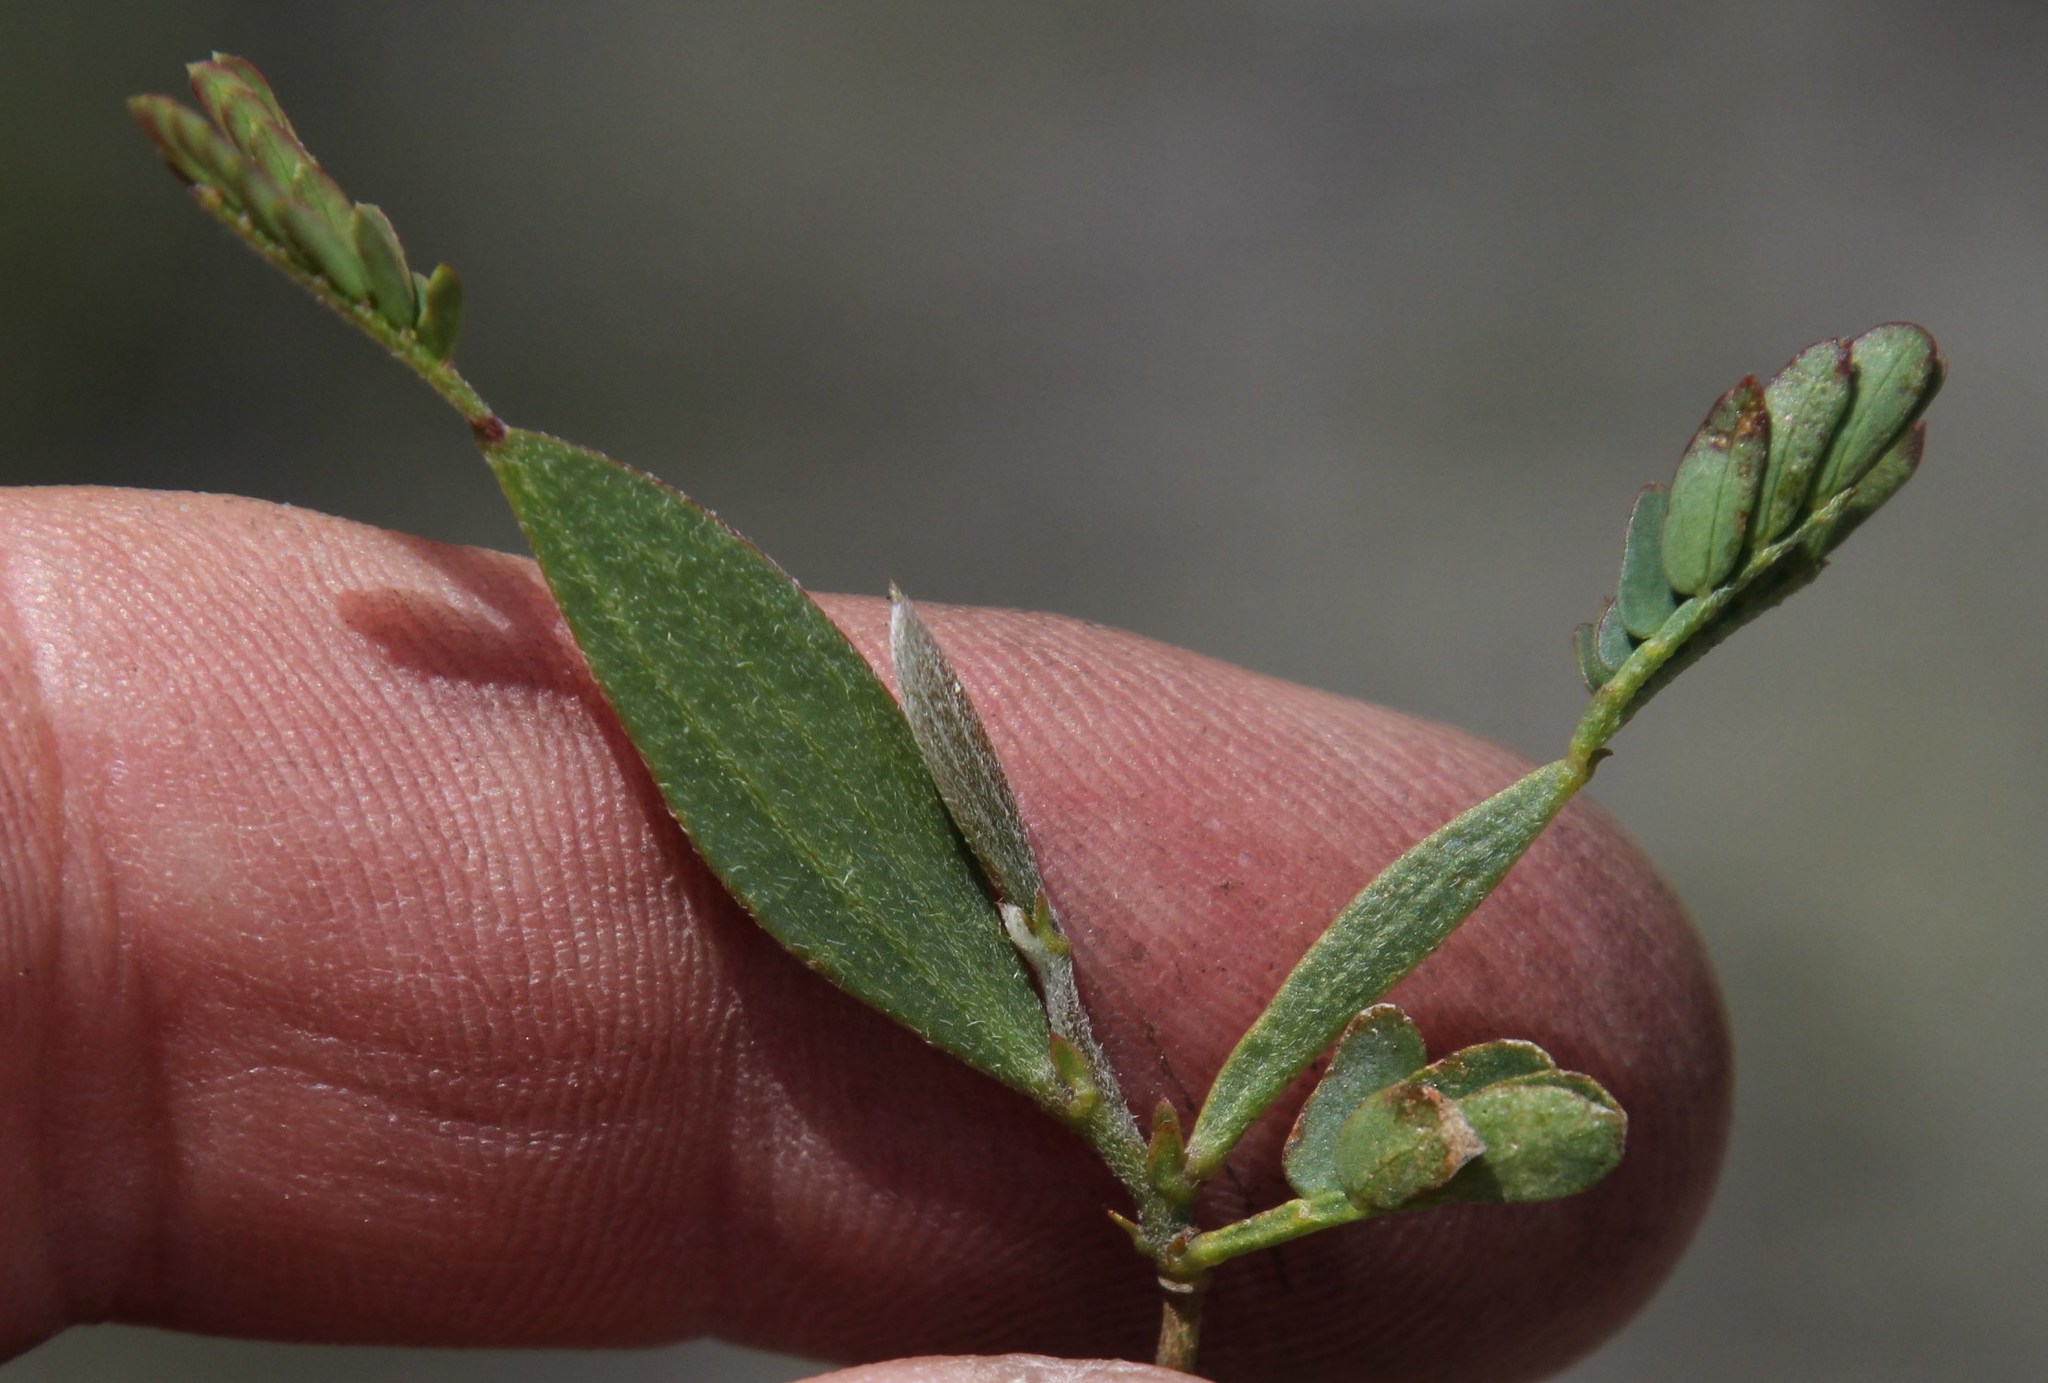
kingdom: Plantae
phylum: Tracheophyta
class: Magnoliopsida
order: Fabales
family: Fabaceae
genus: Acacia
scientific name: Acacia longifolia
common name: Sydney golden wattle
